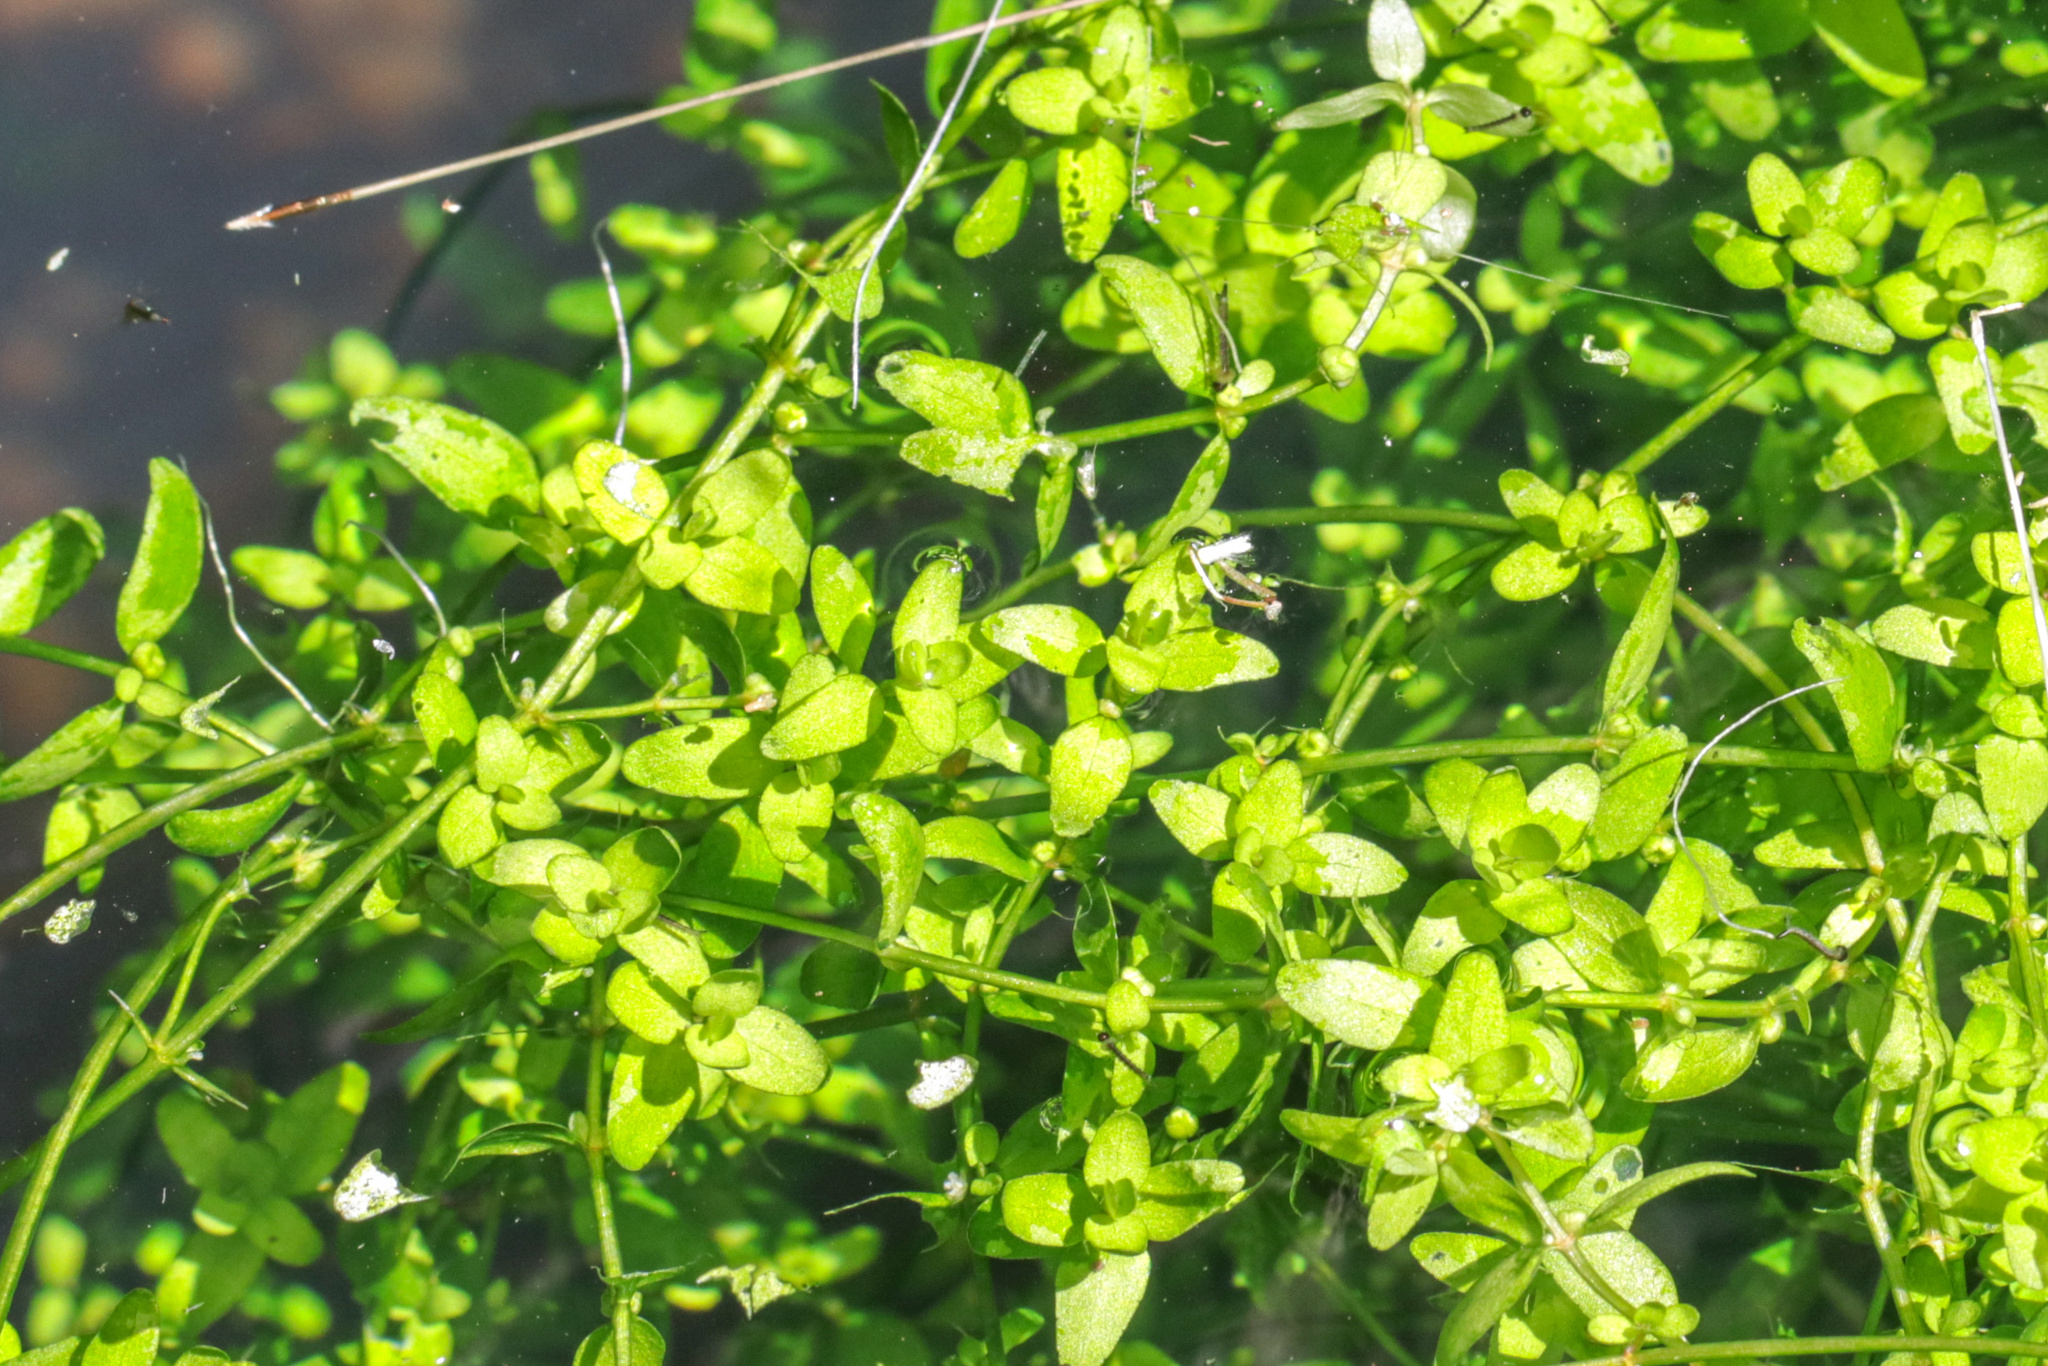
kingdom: Plantae
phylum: Tracheophyta
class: Magnoliopsida
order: Malpighiales
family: Elatinaceae
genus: Elatine
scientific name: Elatine gratioloides
